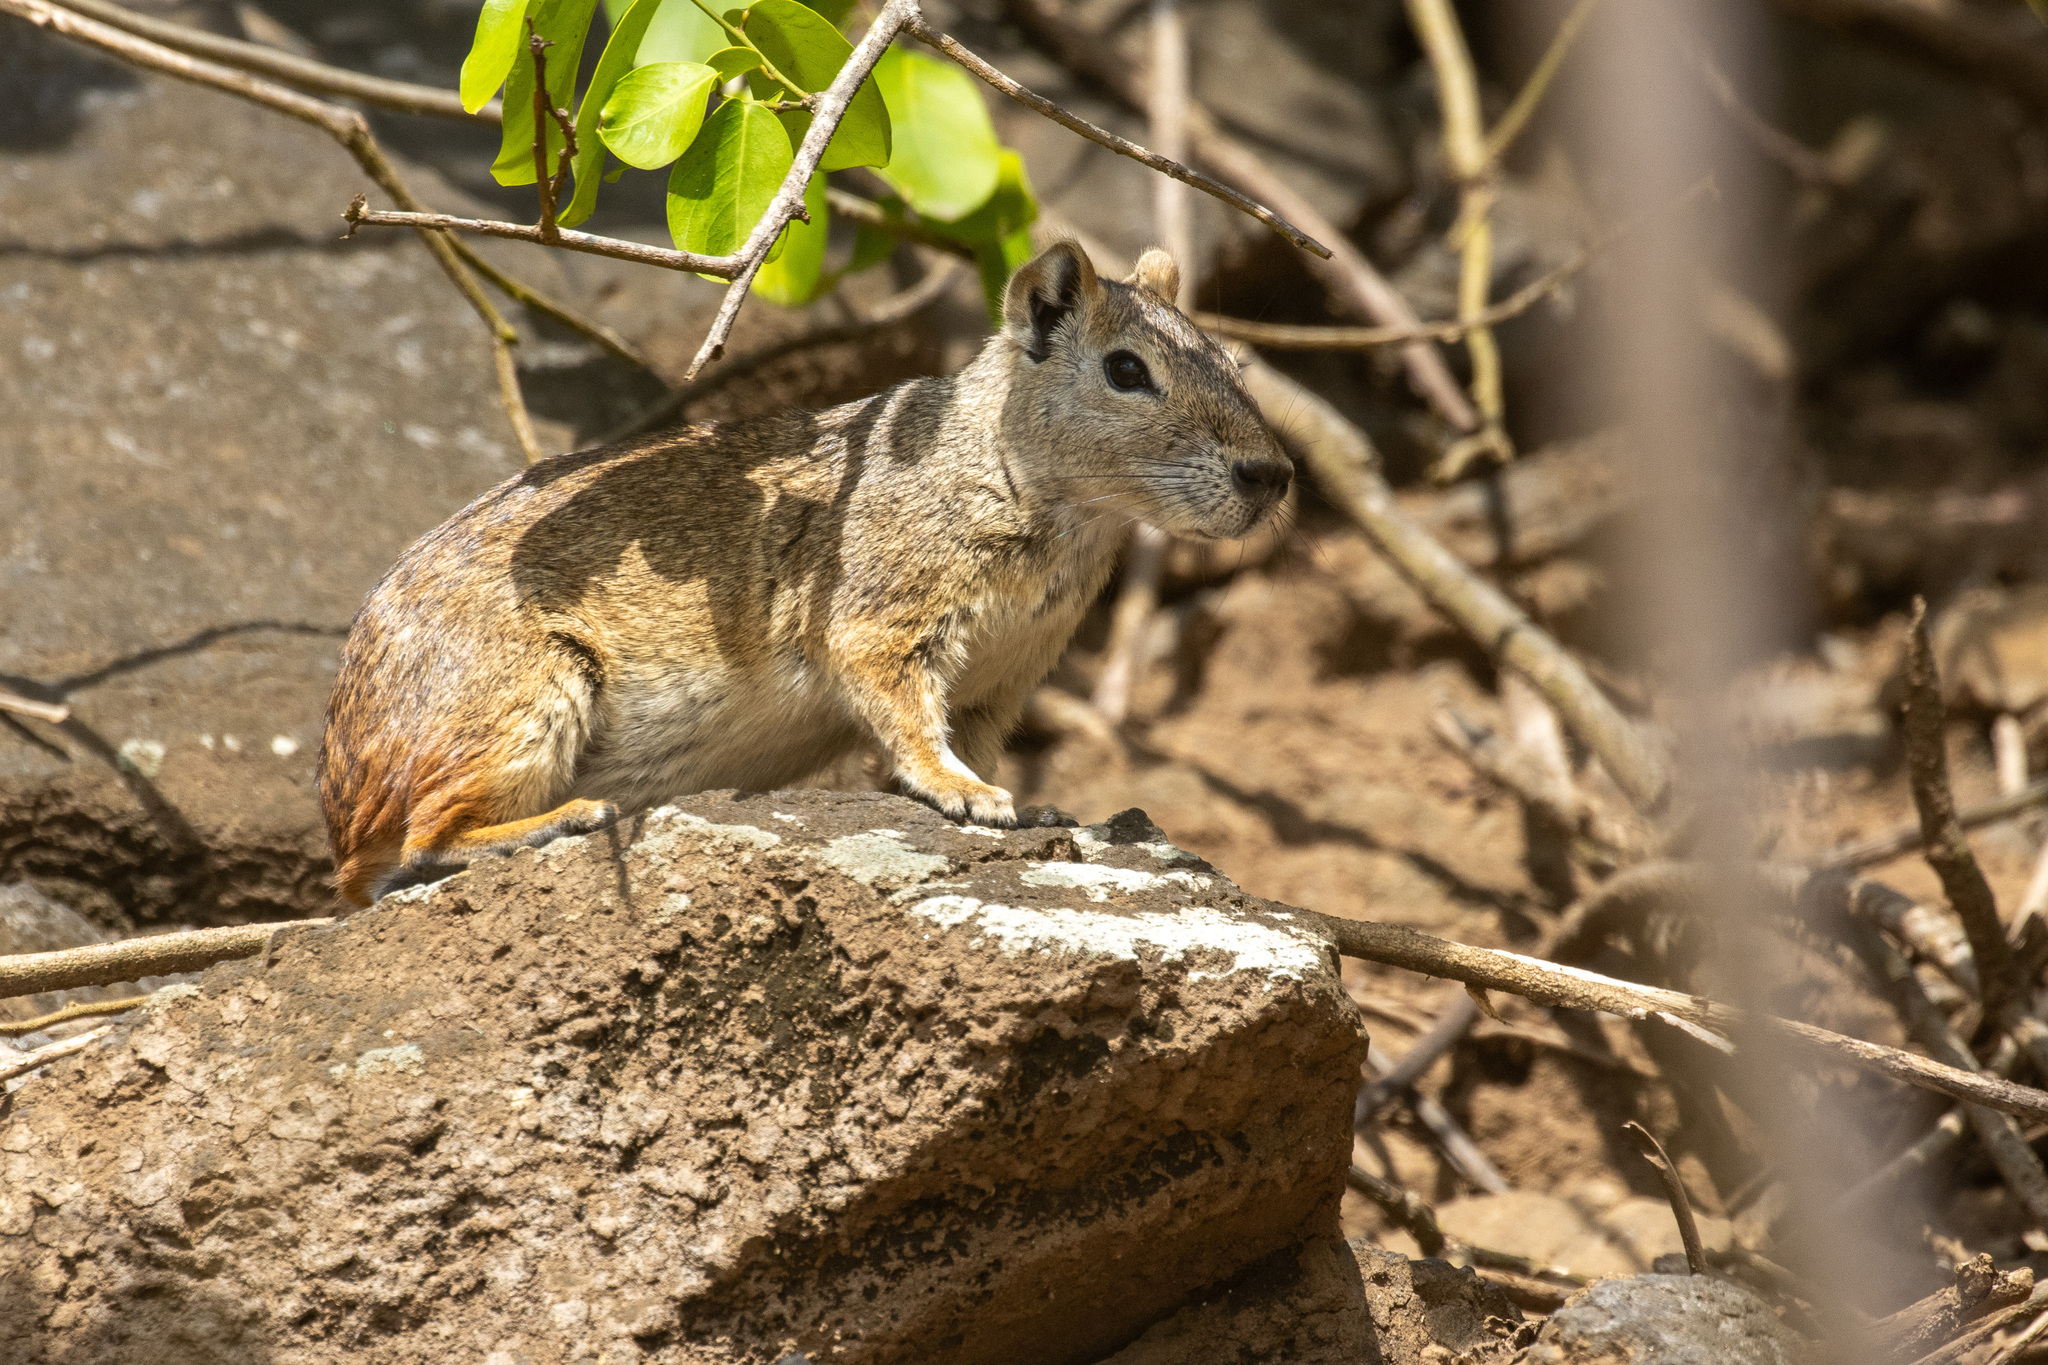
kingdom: Animalia
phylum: Chordata
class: Mammalia
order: Rodentia
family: Caviidae
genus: Kerodon
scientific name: Kerodon rupestris
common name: Rock cavy
